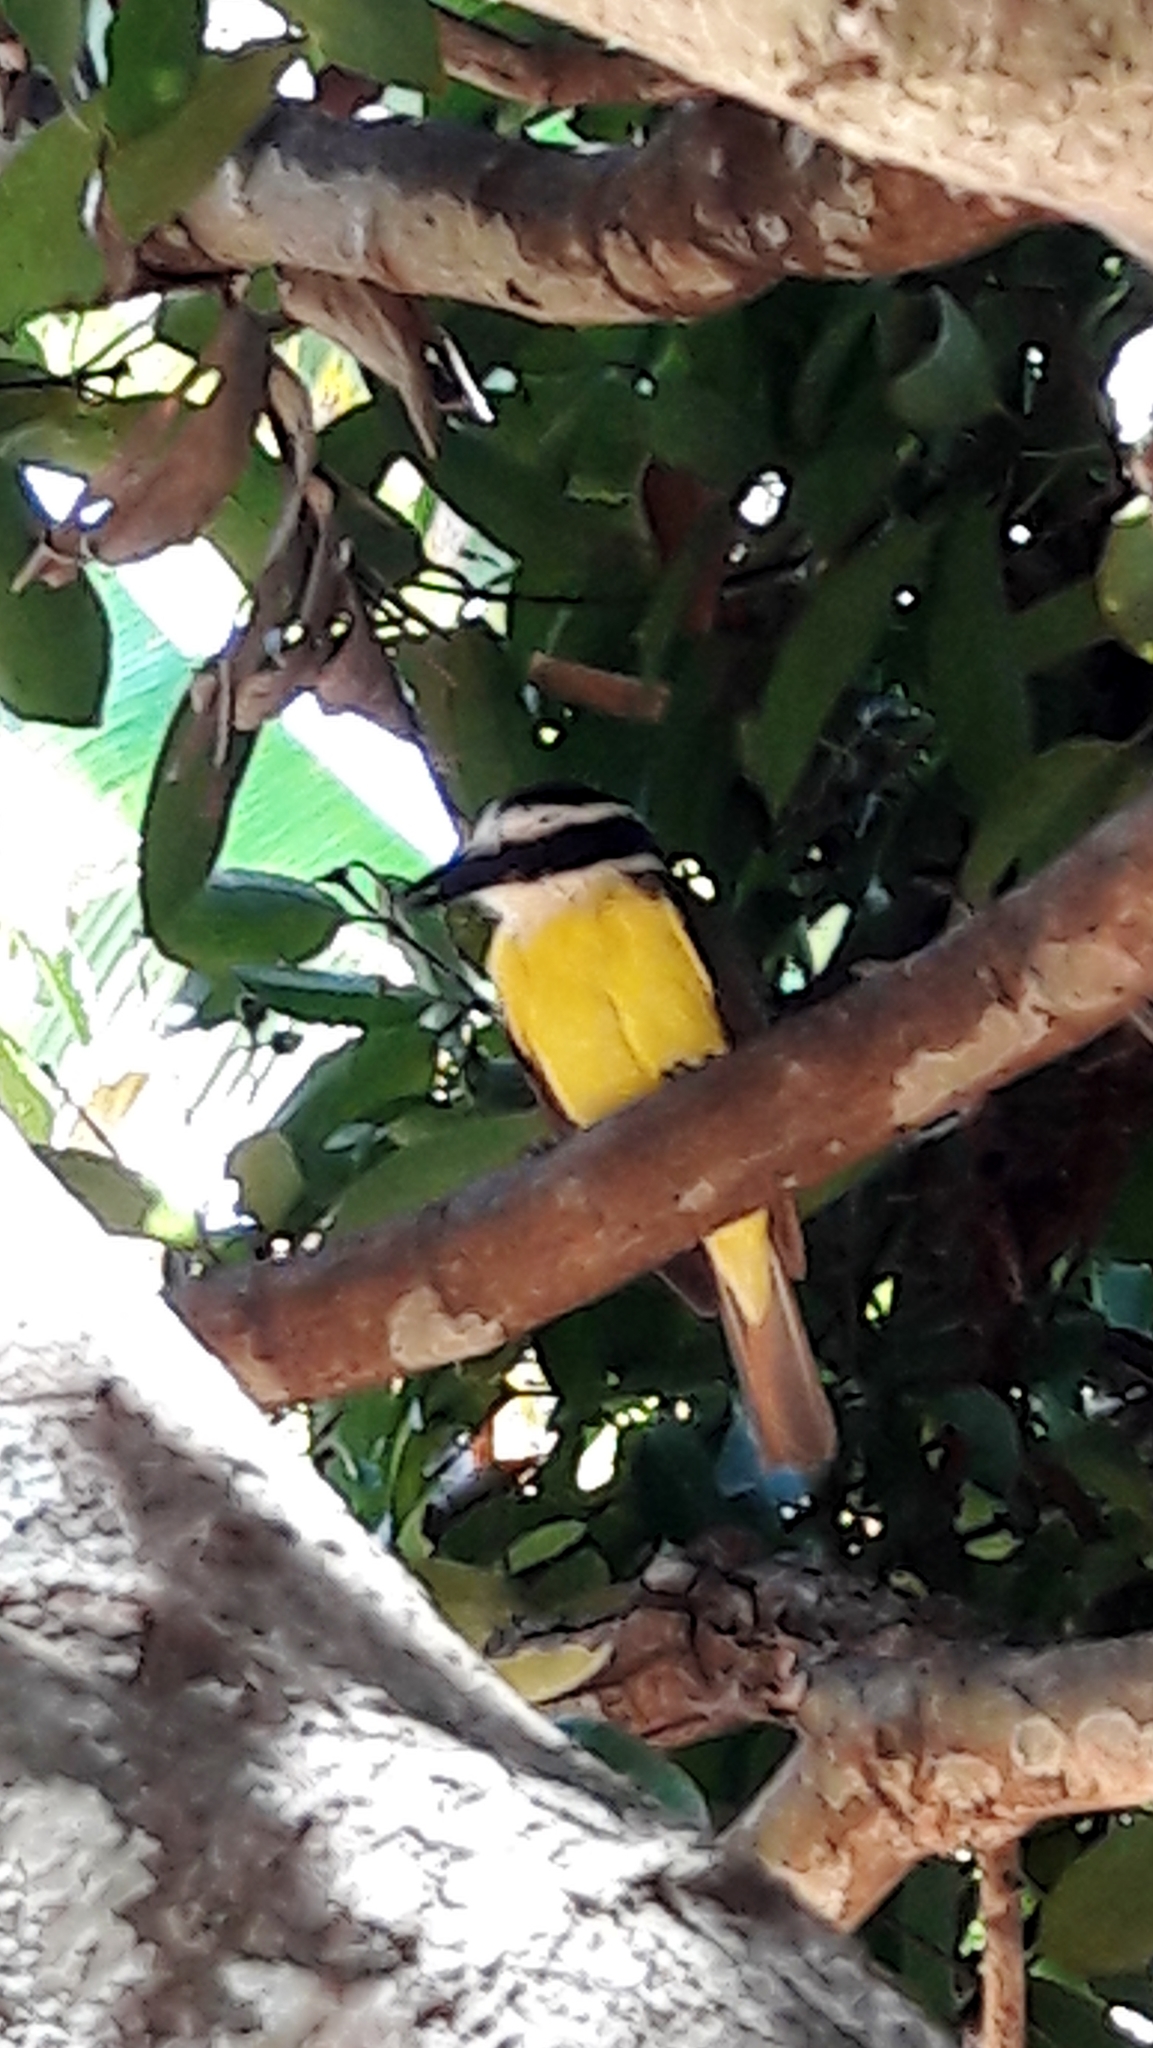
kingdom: Animalia
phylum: Chordata
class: Aves
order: Passeriformes
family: Tyrannidae
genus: Pitangus
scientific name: Pitangus sulphuratus
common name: Great kiskadee
